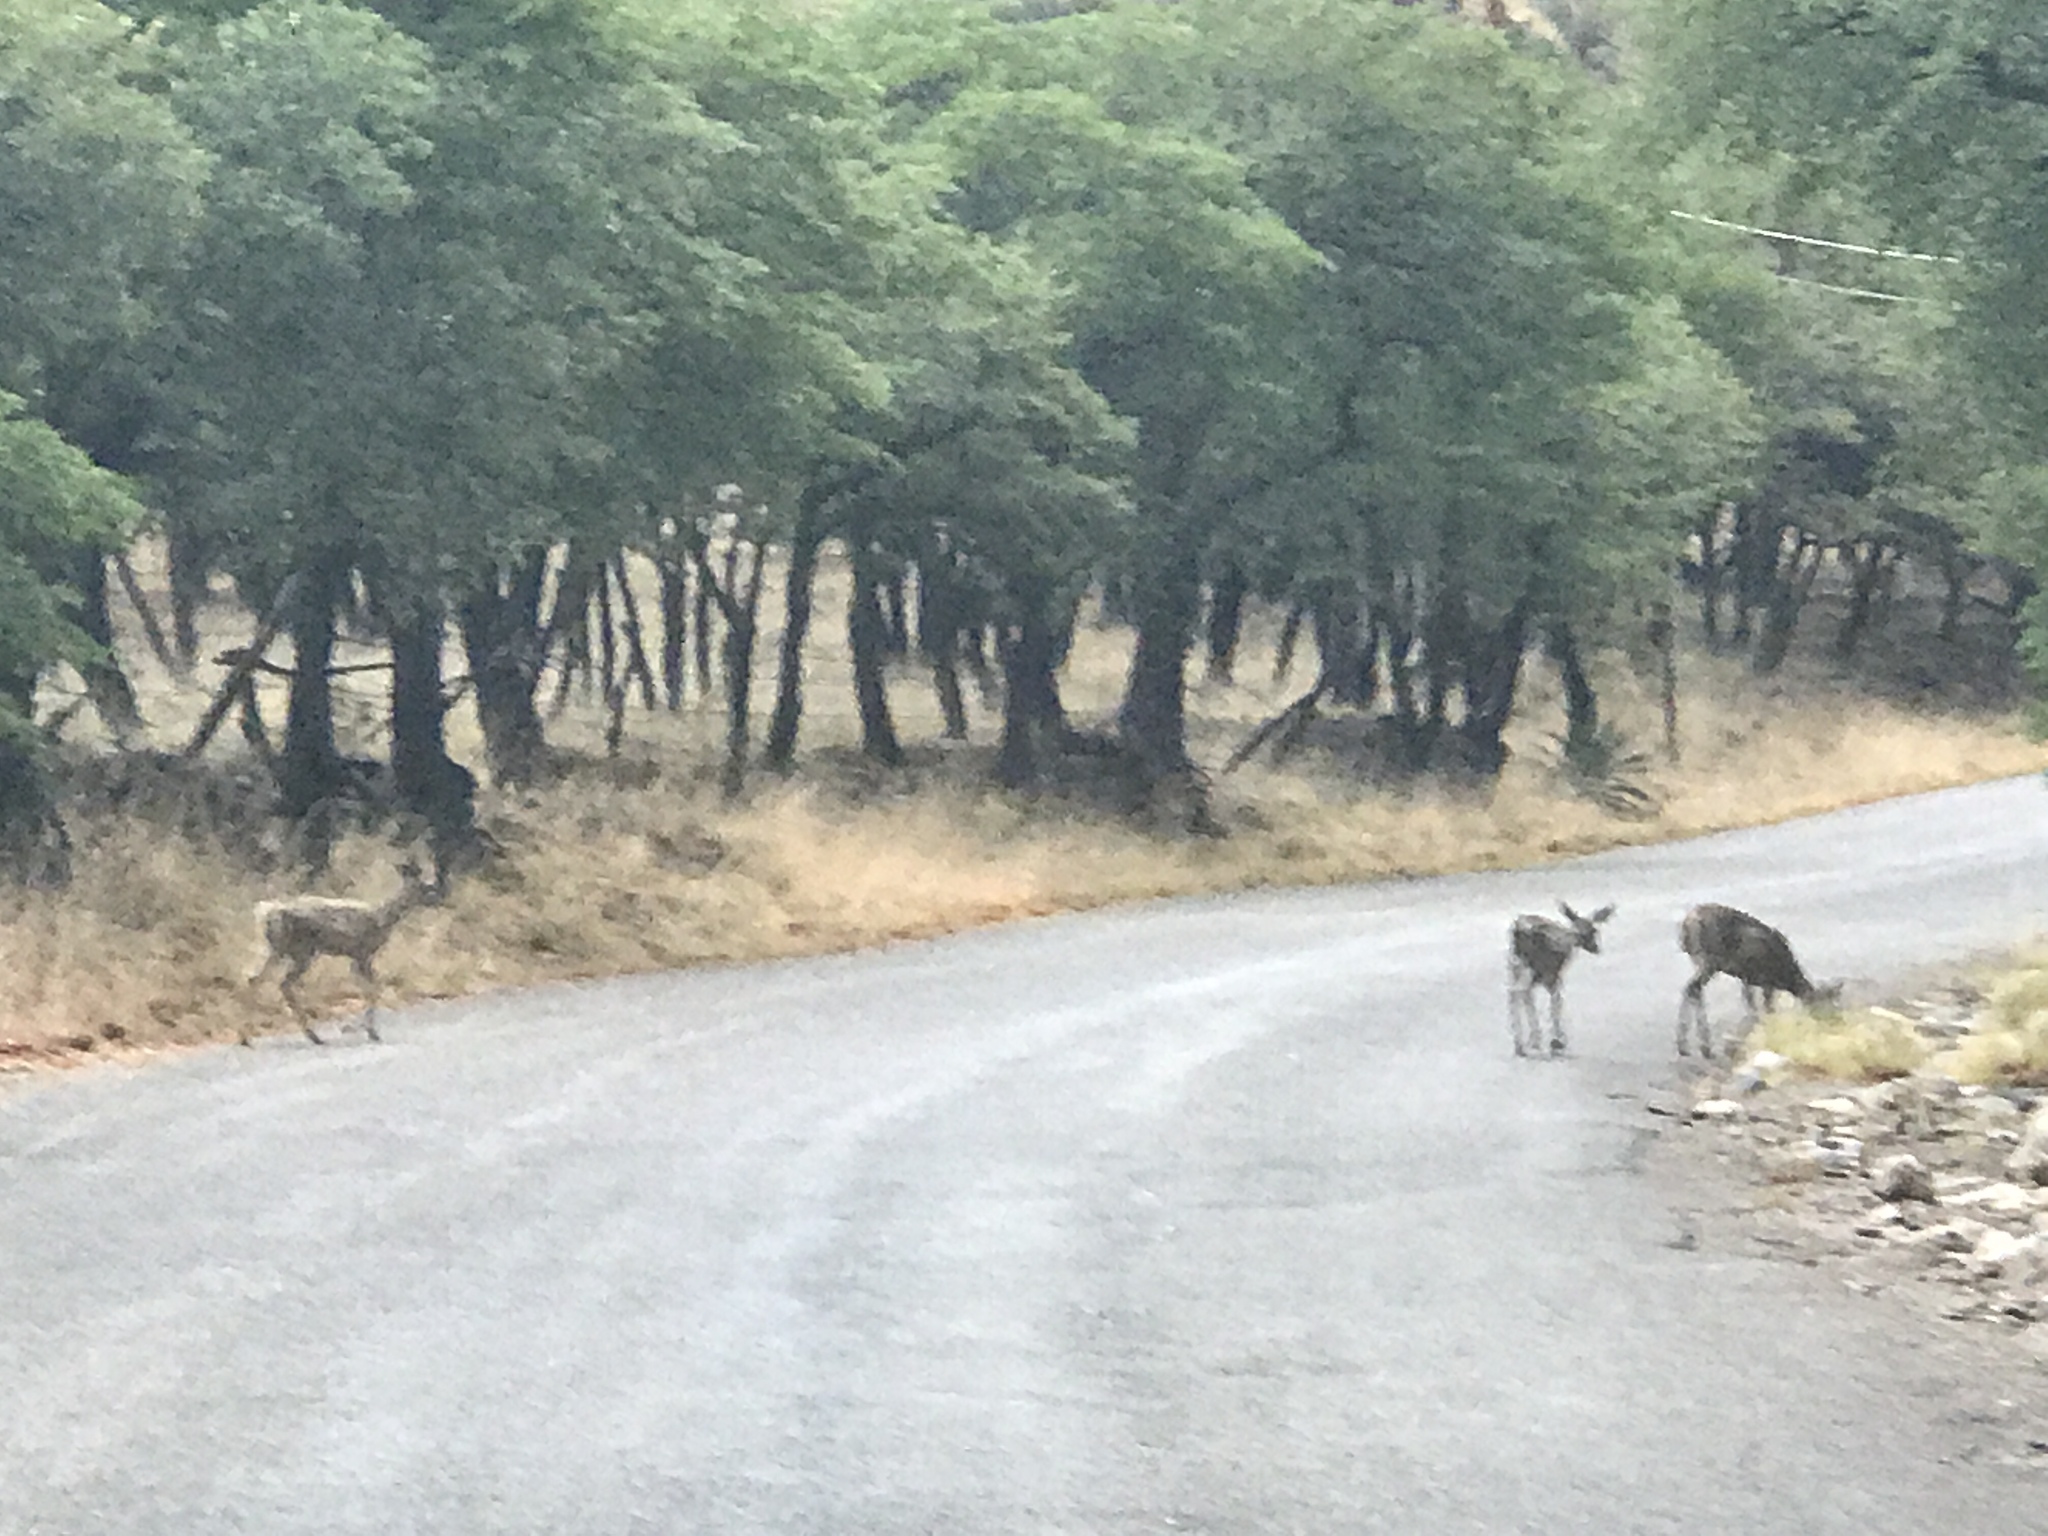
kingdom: Animalia
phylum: Chordata
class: Mammalia
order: Artiodactyla
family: Cervidae
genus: Odocoileus
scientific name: Odocoileus virginianus
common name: White-tailed deer
